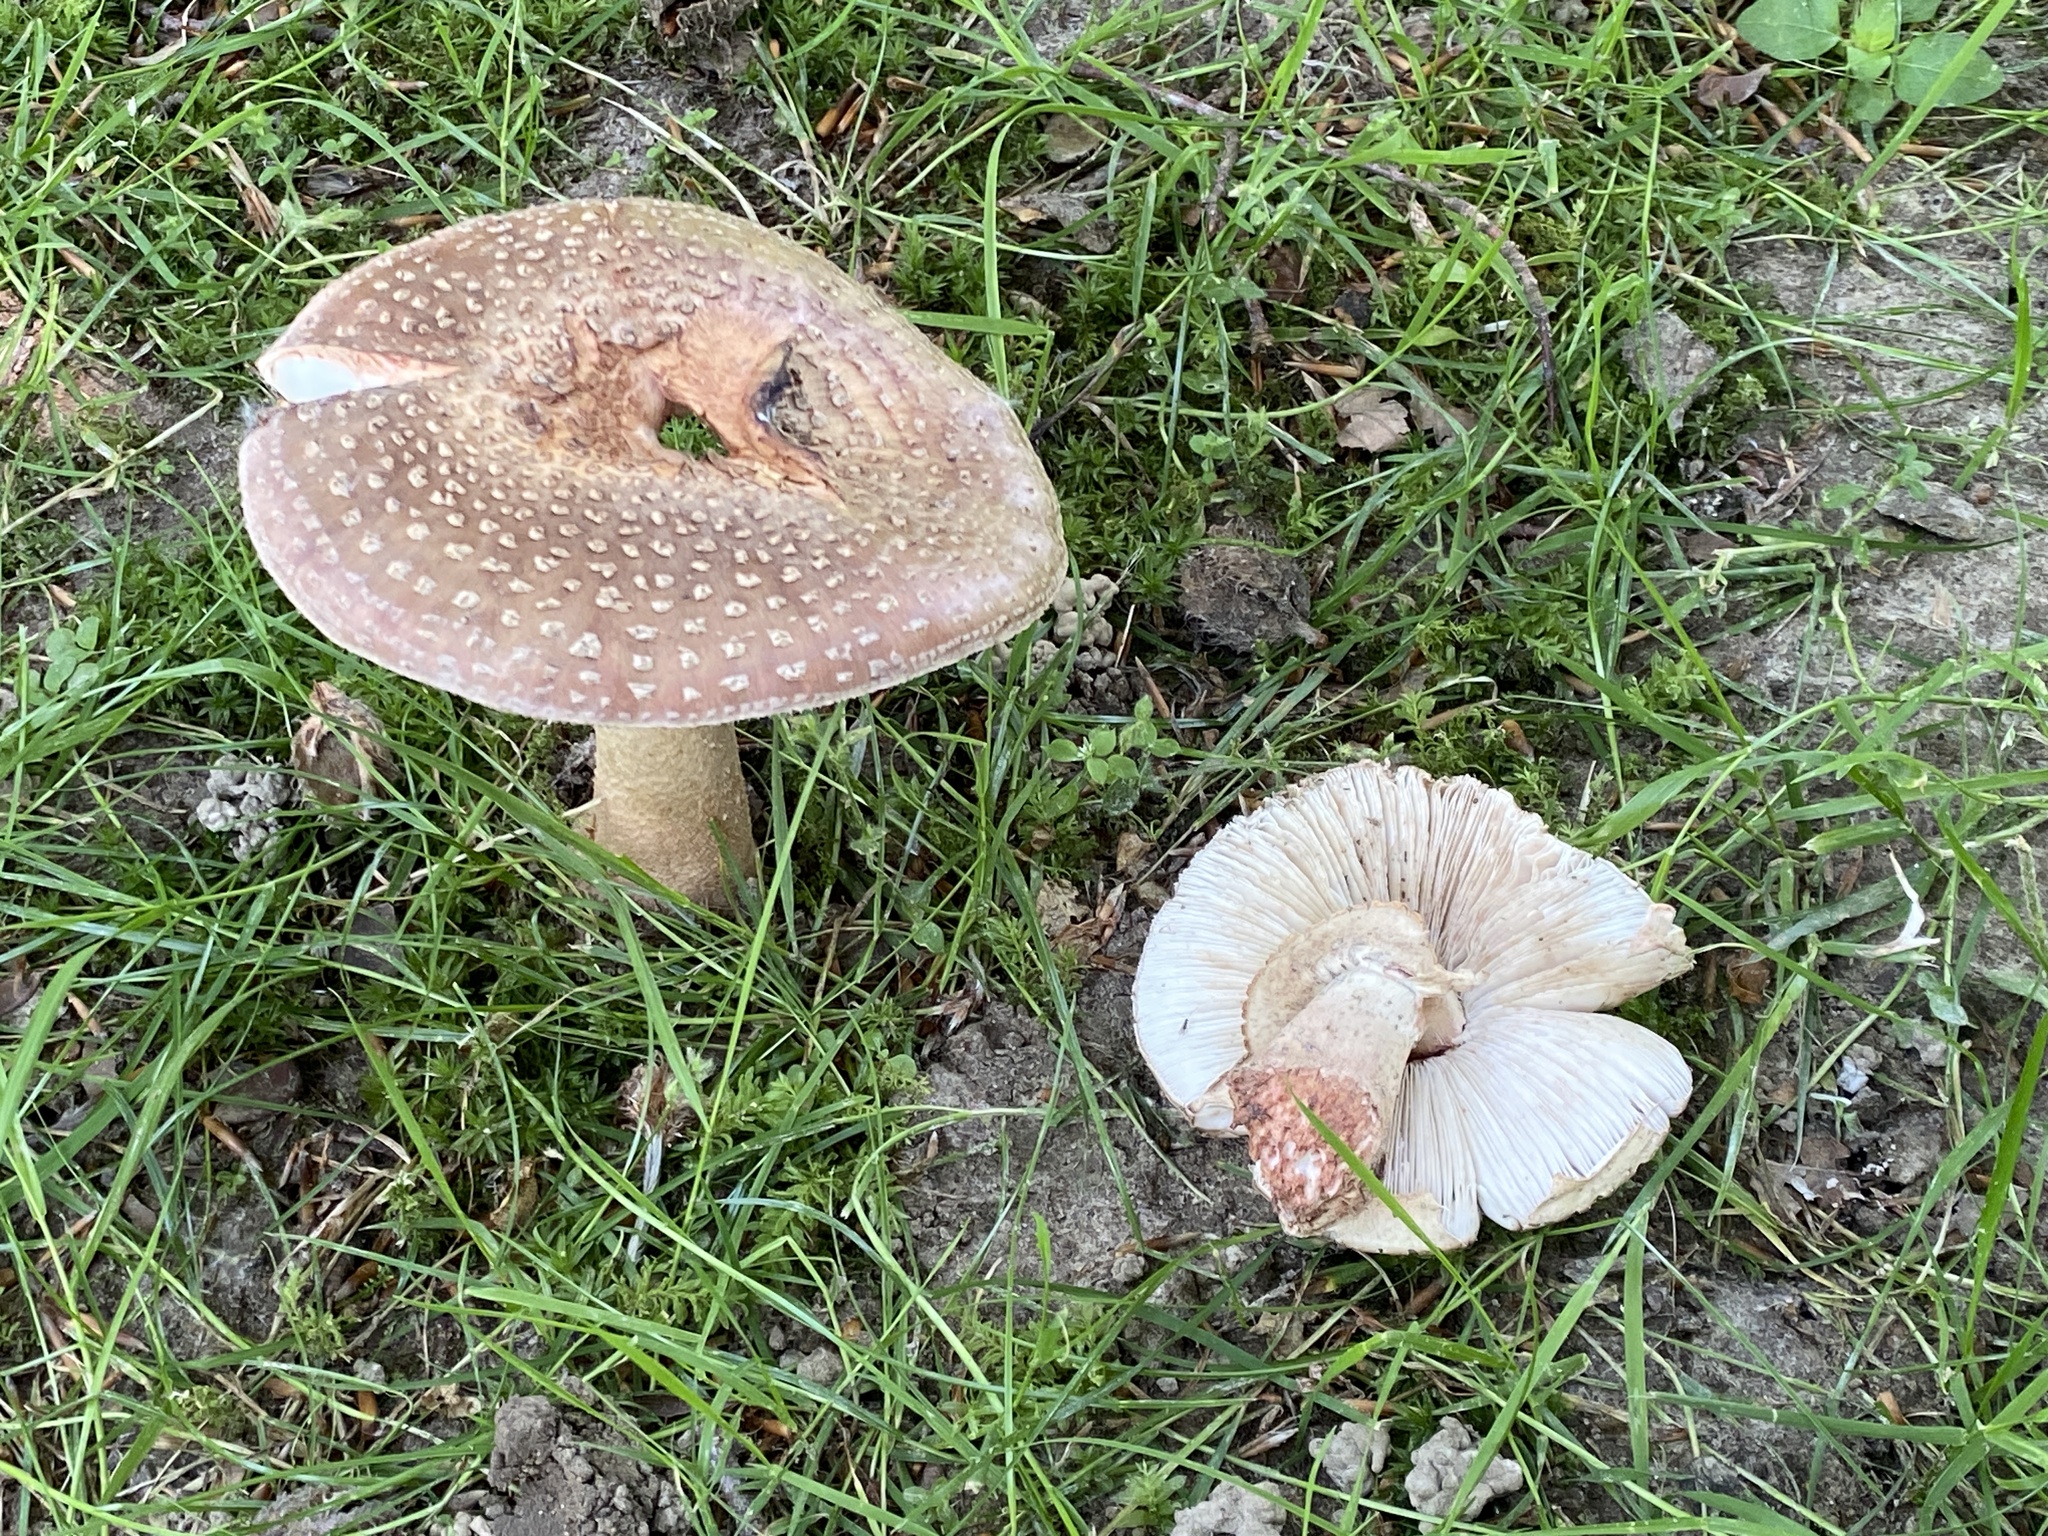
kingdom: Fungi
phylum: Basidiomycota
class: Agaricomycetes
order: Agaricales
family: Amanitaceae
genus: Amanita
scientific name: Amanita rubescens
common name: Blusher
